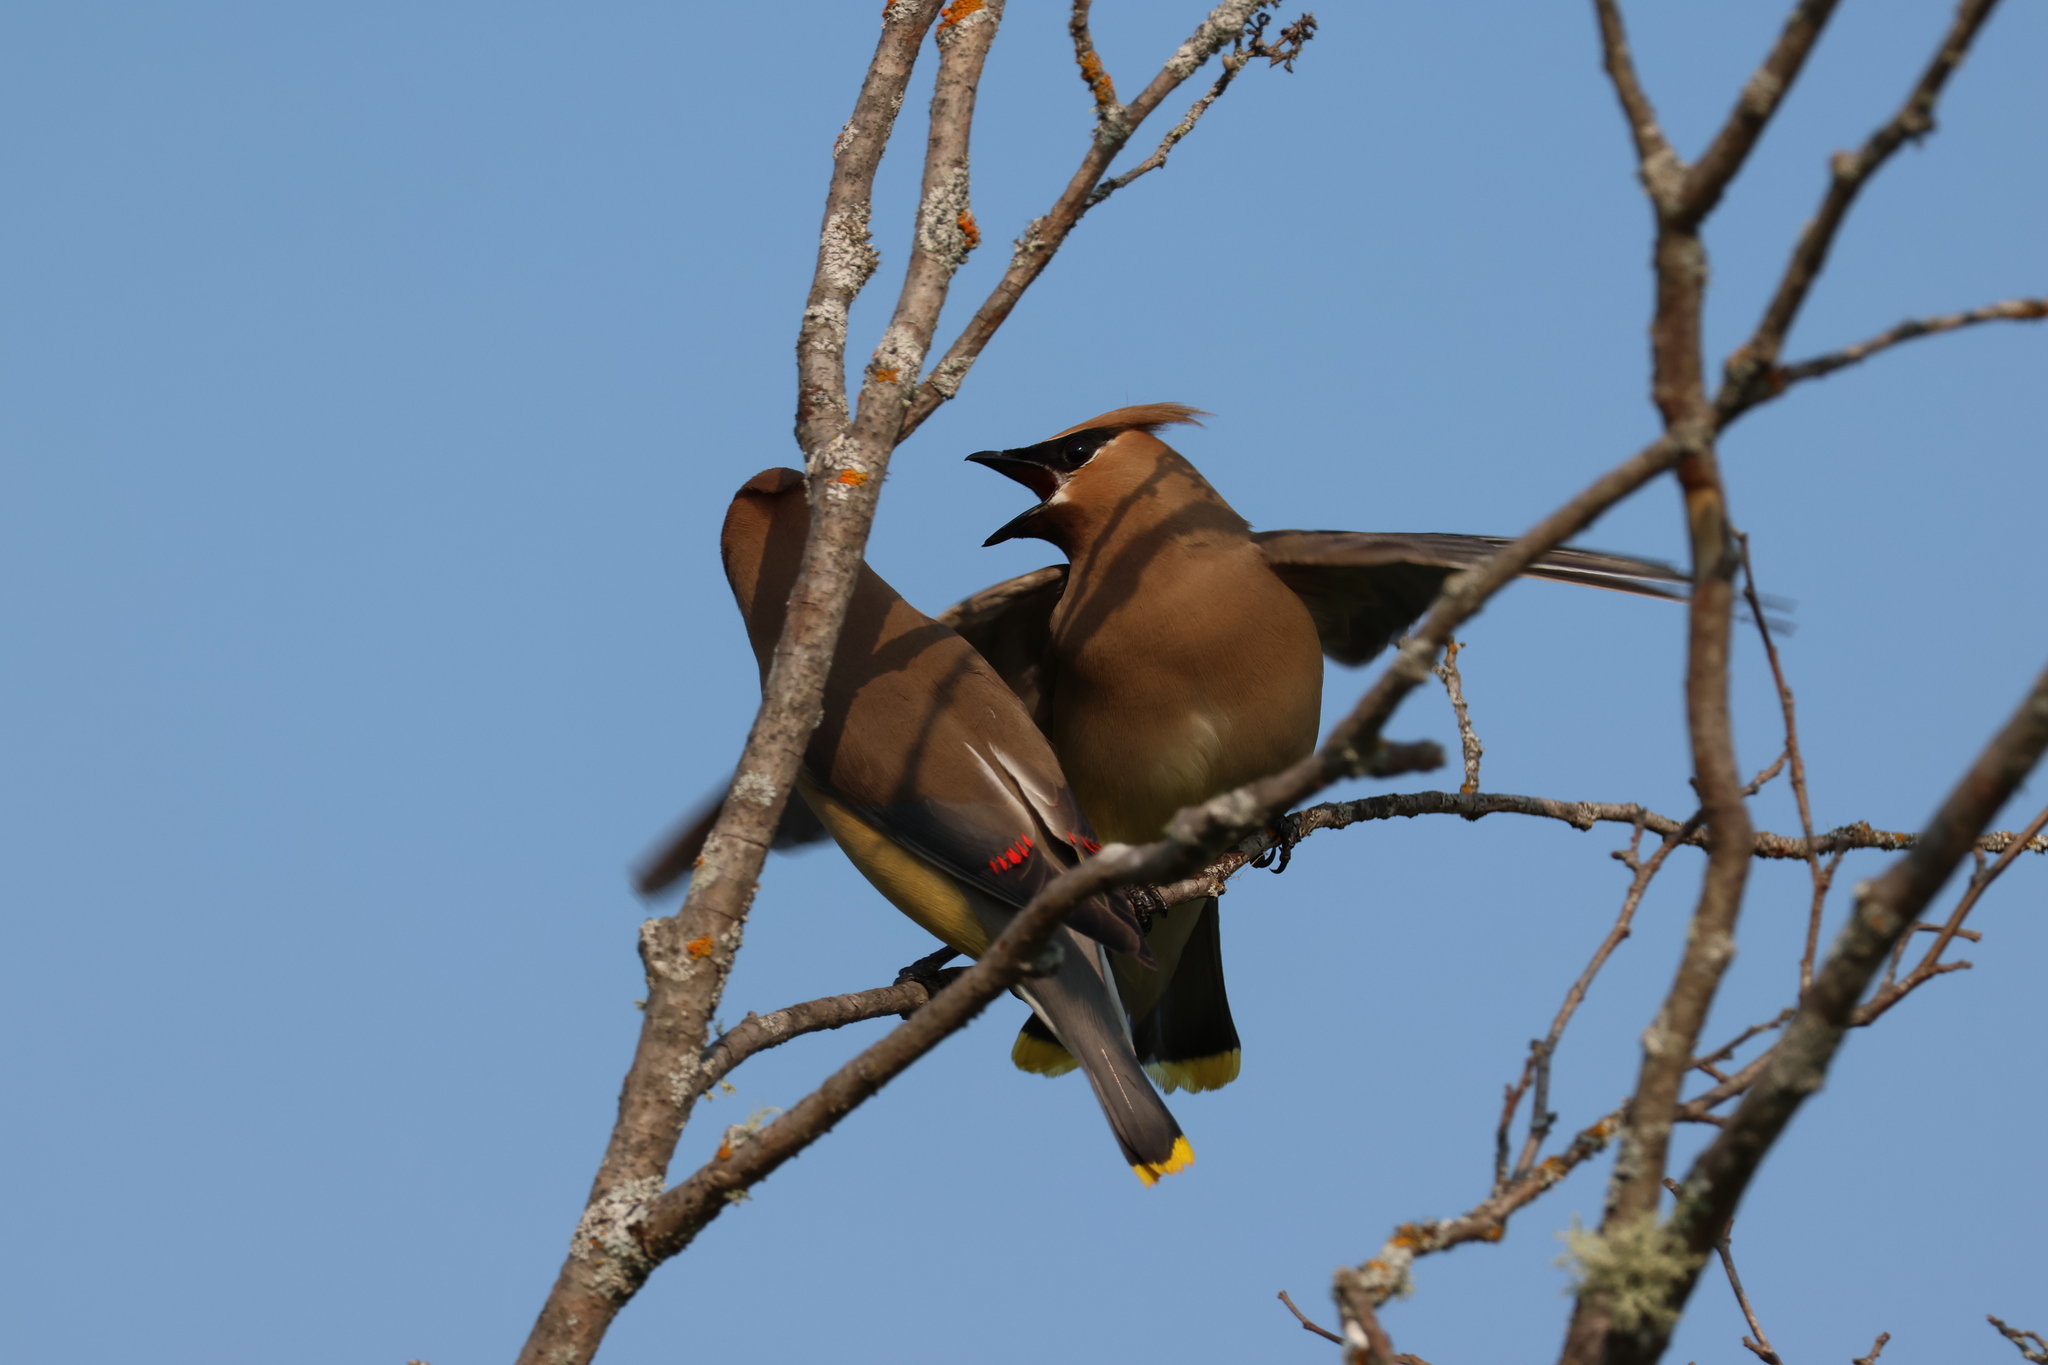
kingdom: Animalia
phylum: Chordata
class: Aves
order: Passeriformes
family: Bombycillidae
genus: Bombycilla
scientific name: Bombycilla cedrorum
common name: Cedar waxwing
